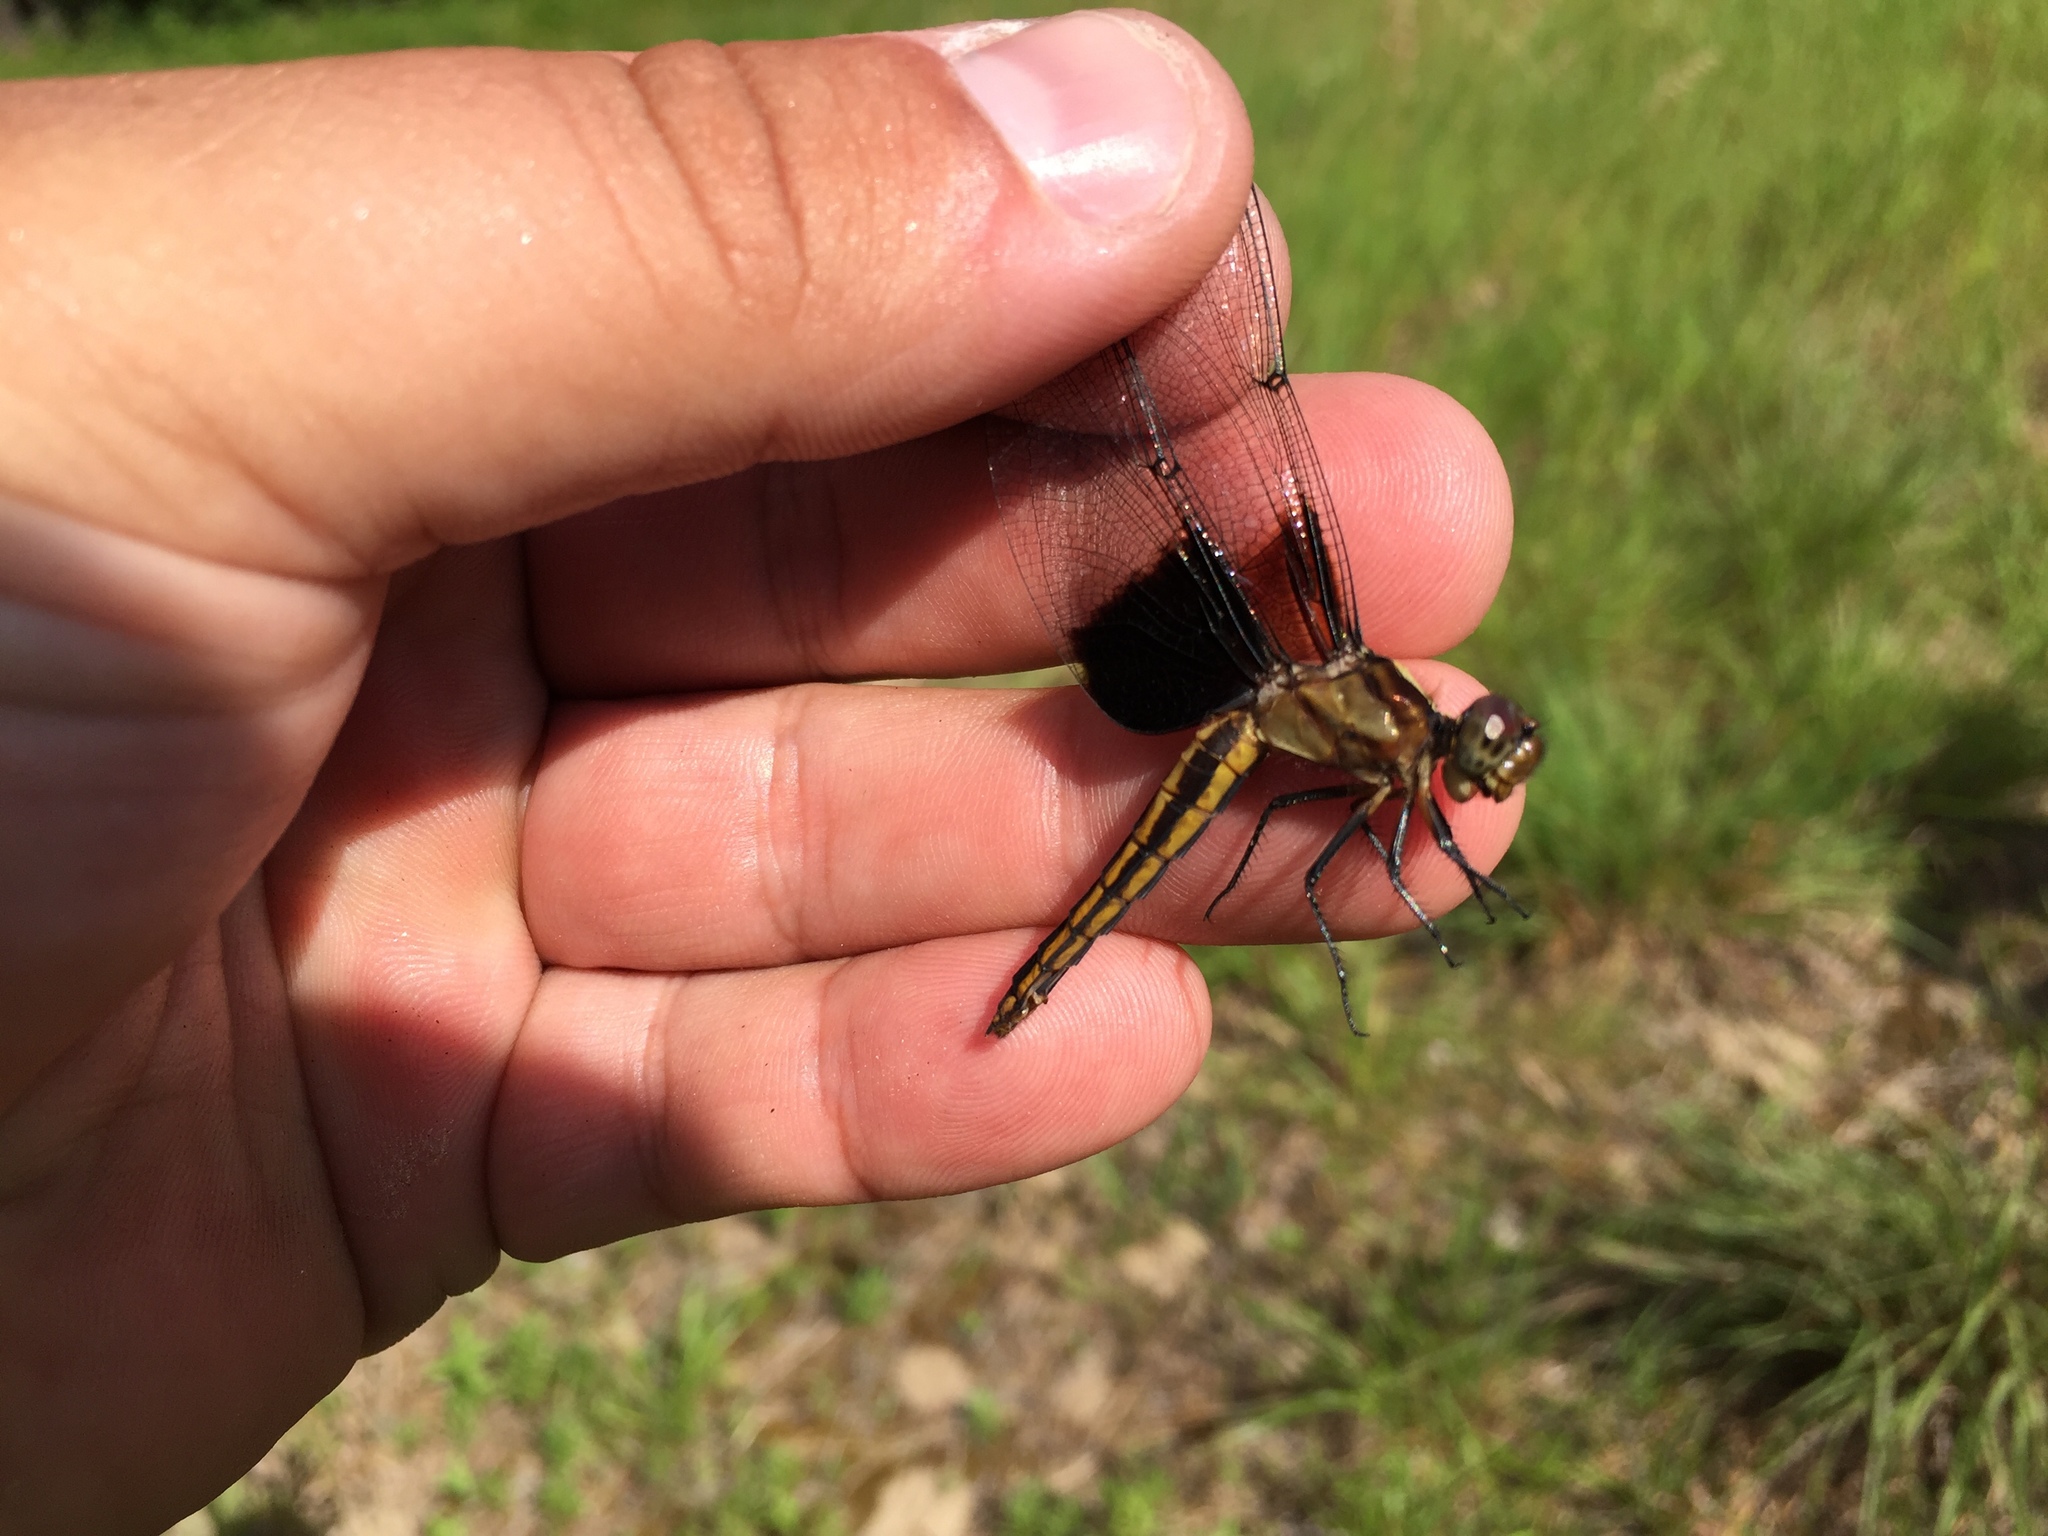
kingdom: Animalia
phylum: Arthropoda
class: Insecta
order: Odonata
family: Libellulidae
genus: Libellula
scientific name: Libellula luctuosa
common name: Widow skimmer
